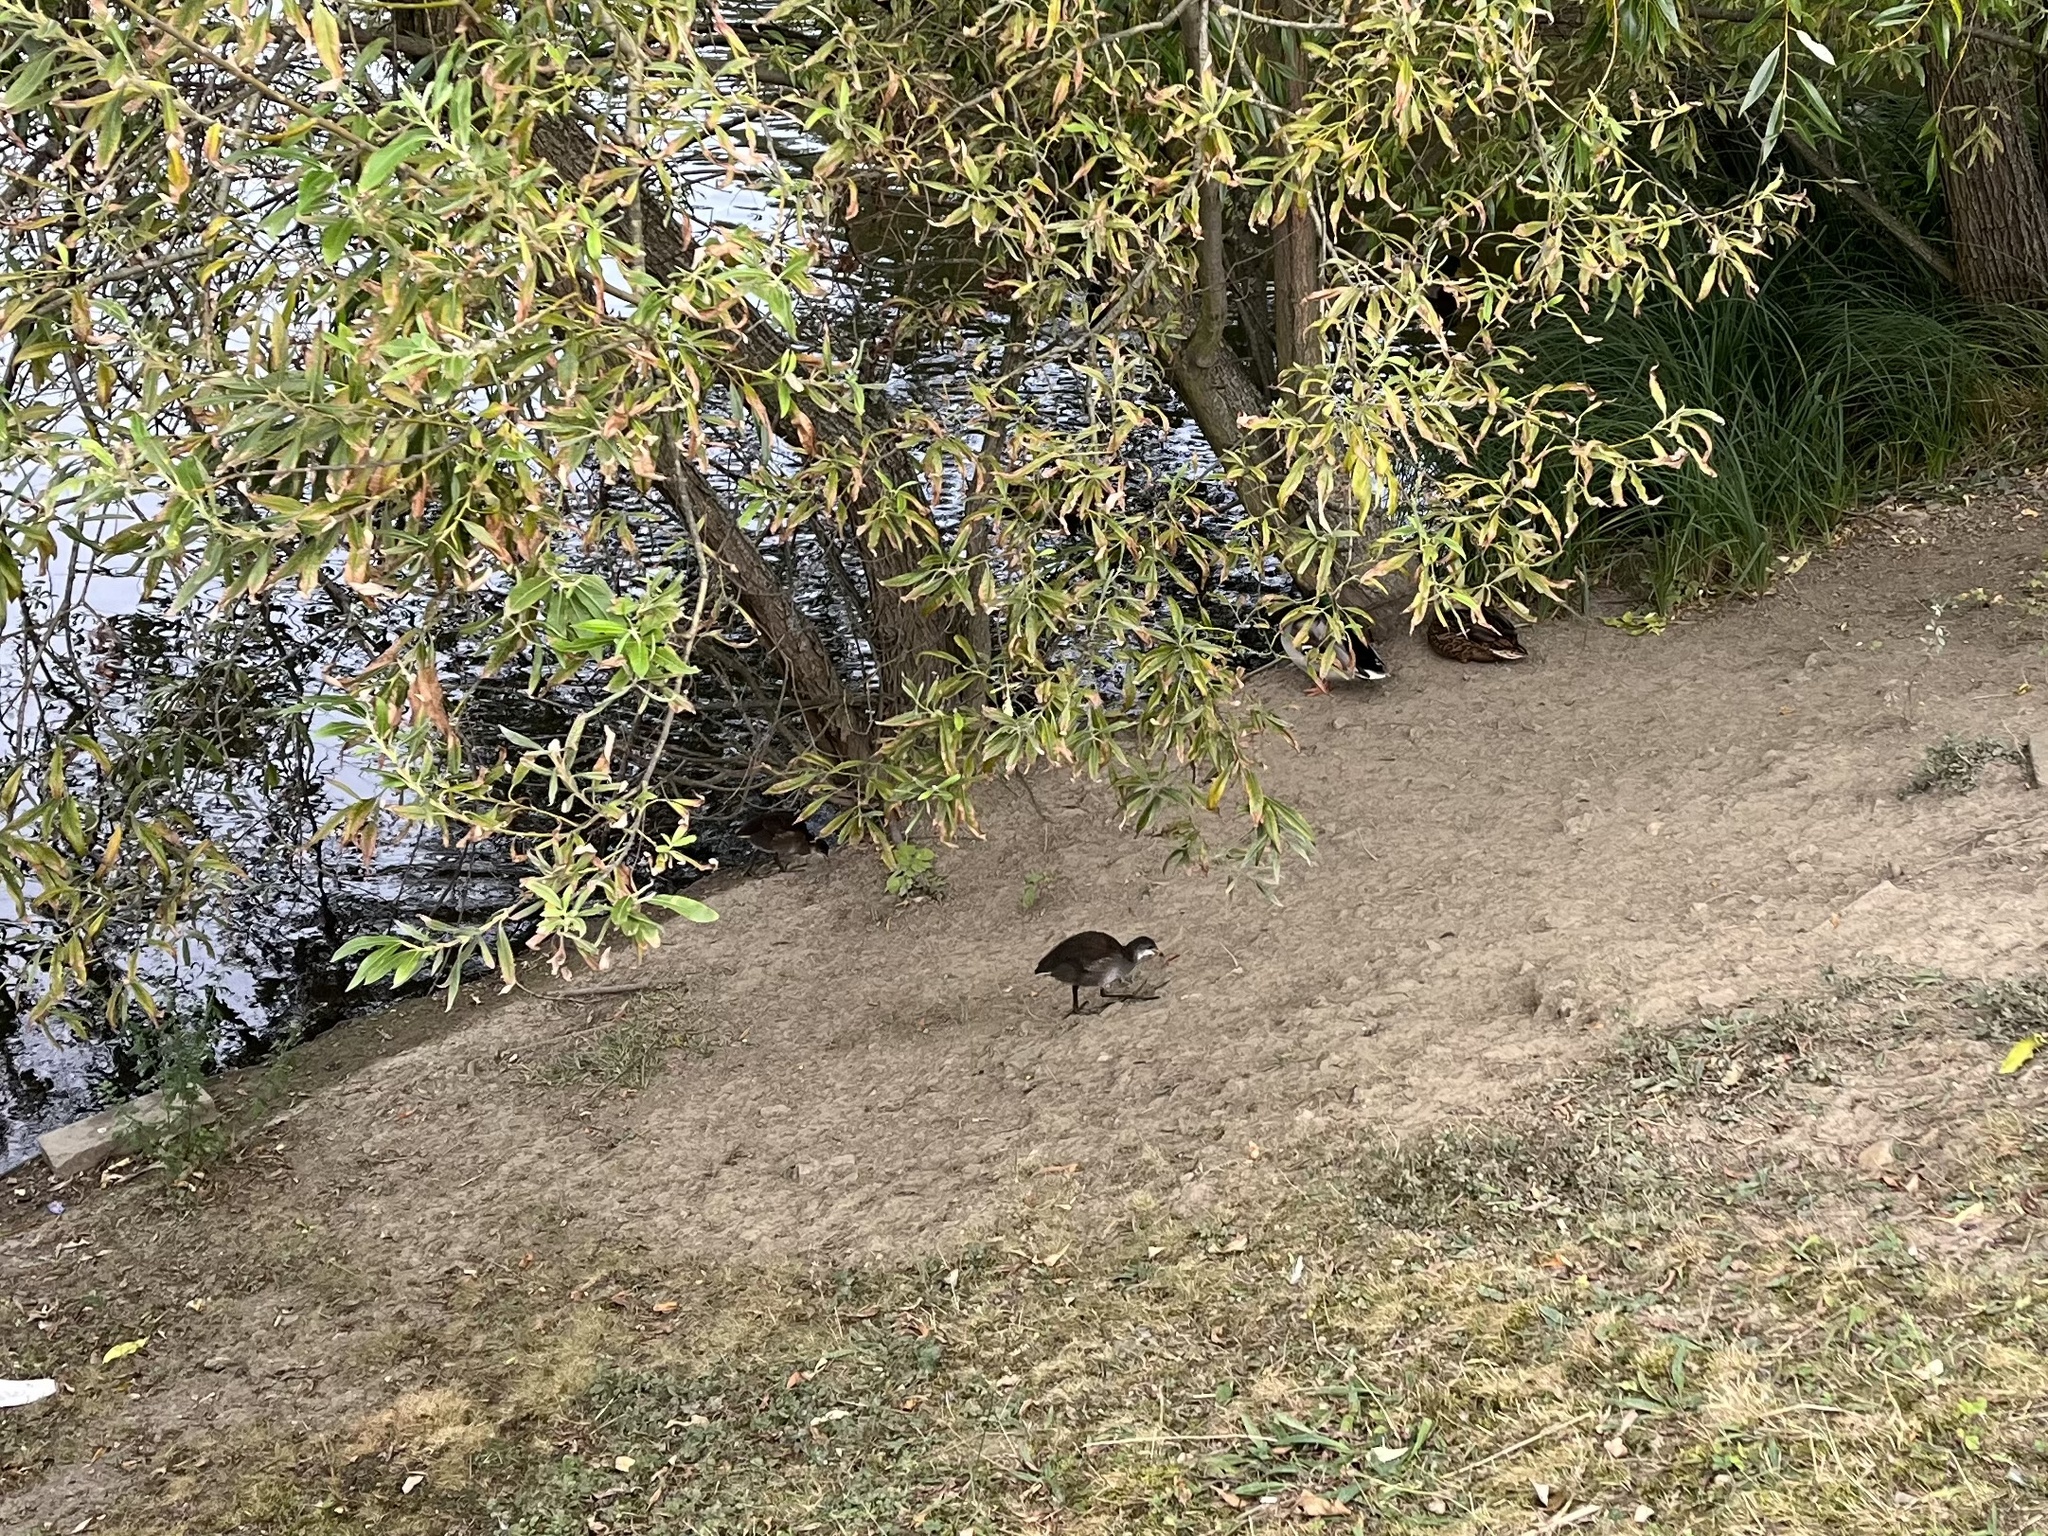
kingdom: Animalia
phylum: Chordata
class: Aves
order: Gruiformes
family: Rallidae
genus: Gallinula
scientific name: Gallinula chloropus
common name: Common moorhen
